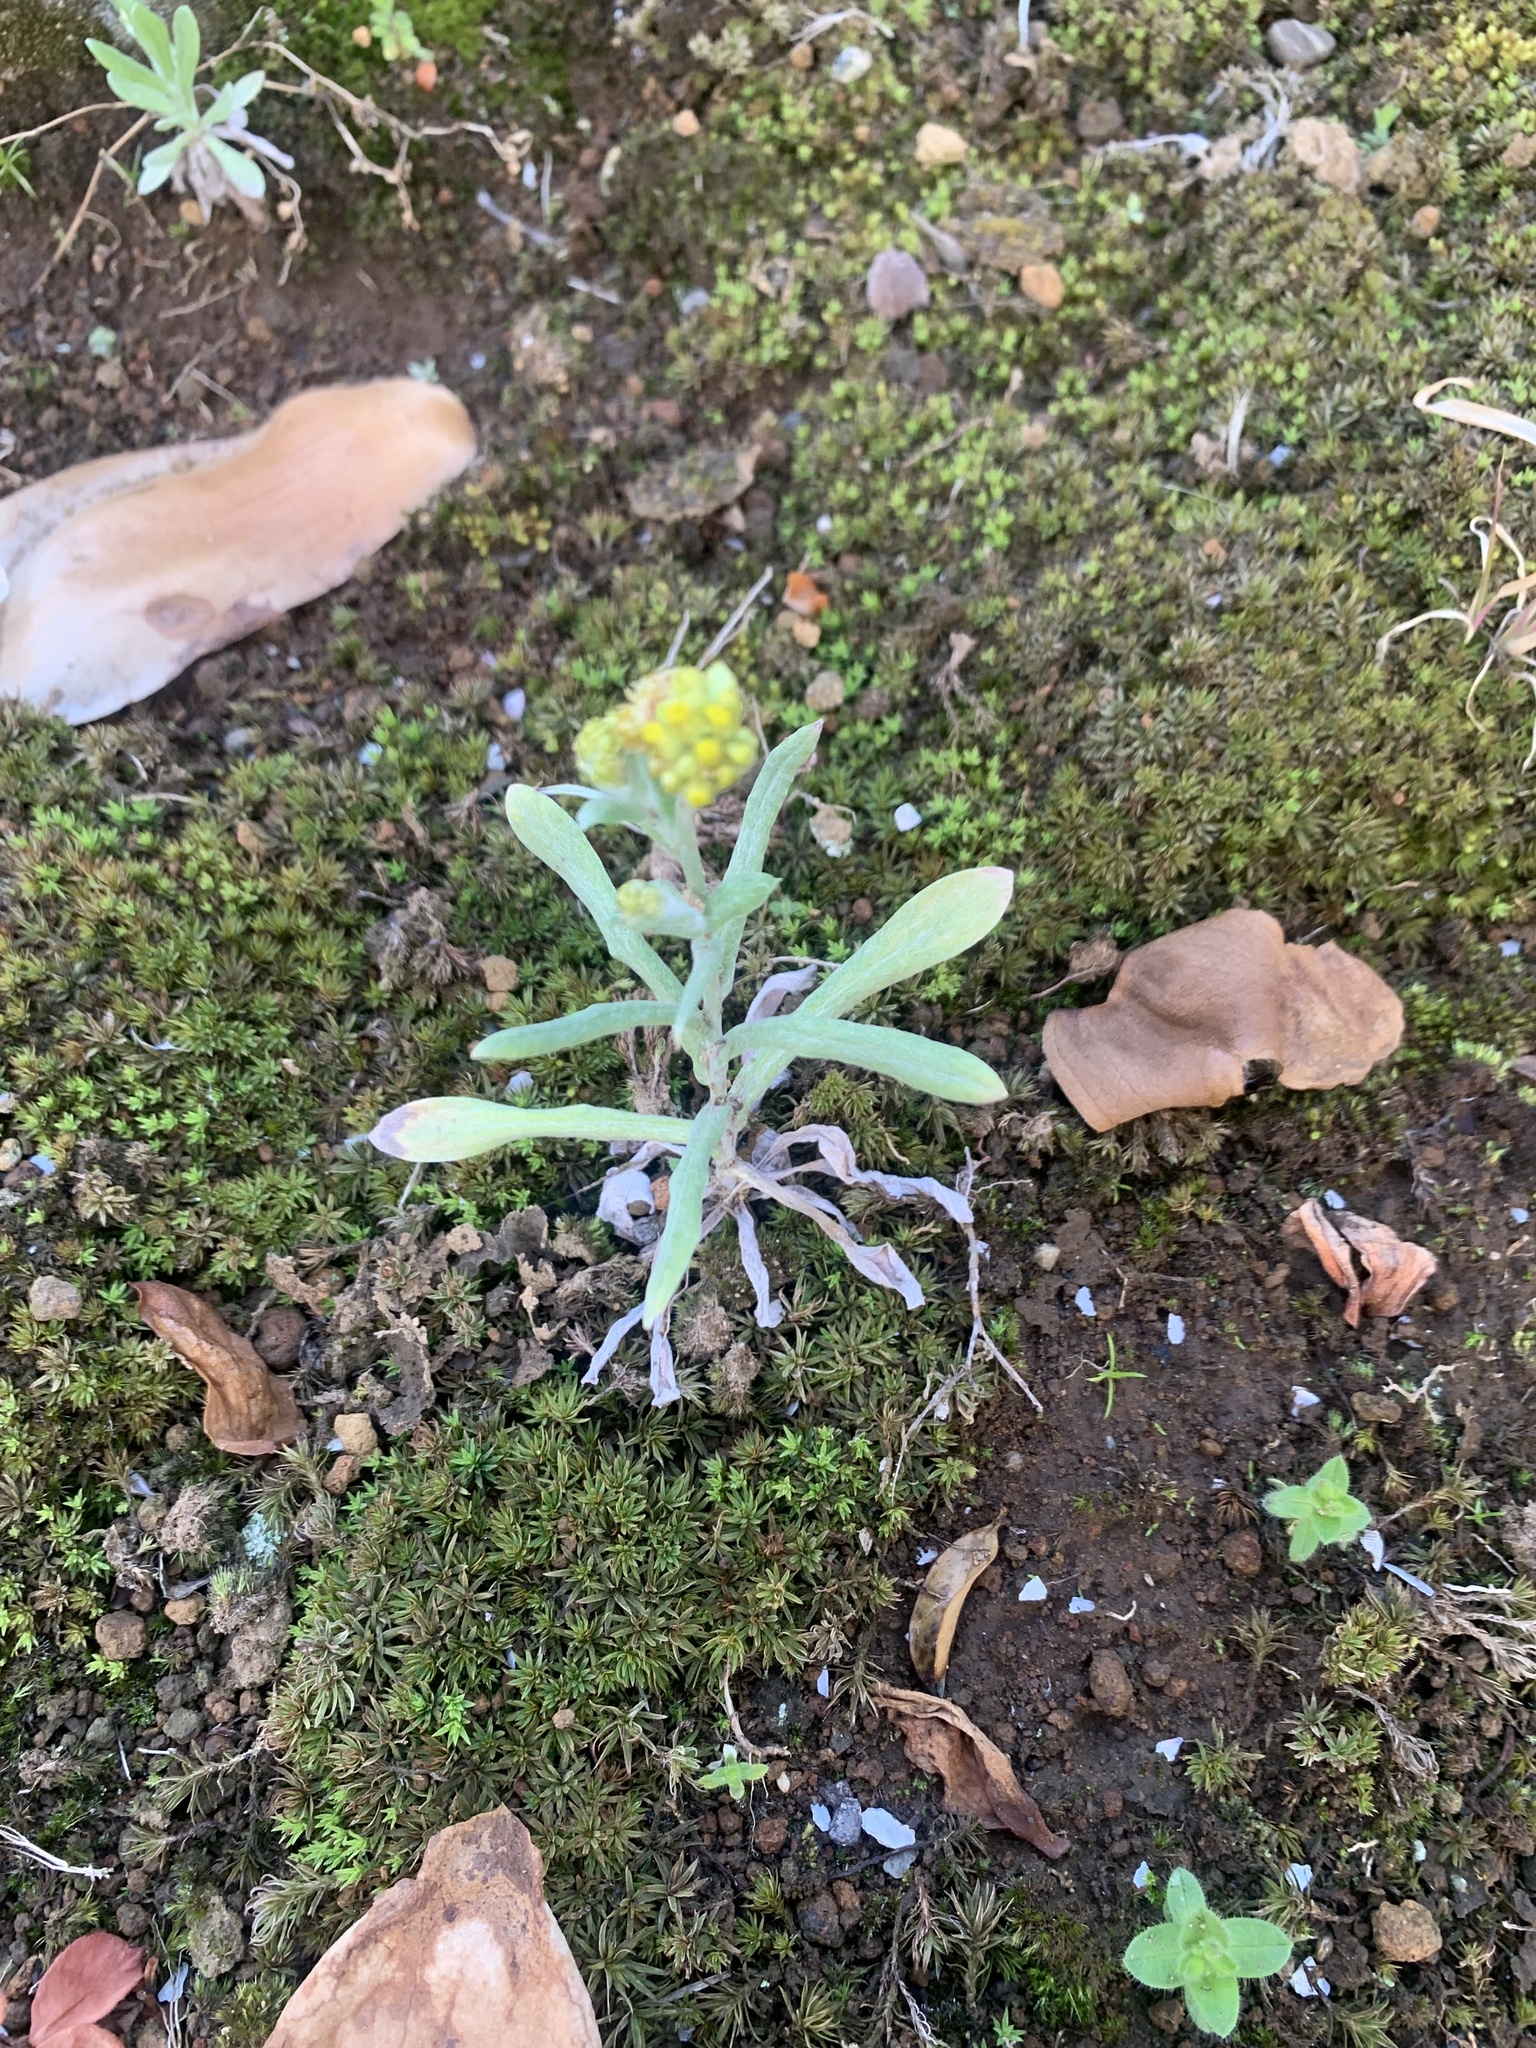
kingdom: Plantae
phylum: Tracheophyta
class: Magnoliopsida
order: Asterales
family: Asteraceae
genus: Pseudognaphalium
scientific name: Pseudognaphalium affine
